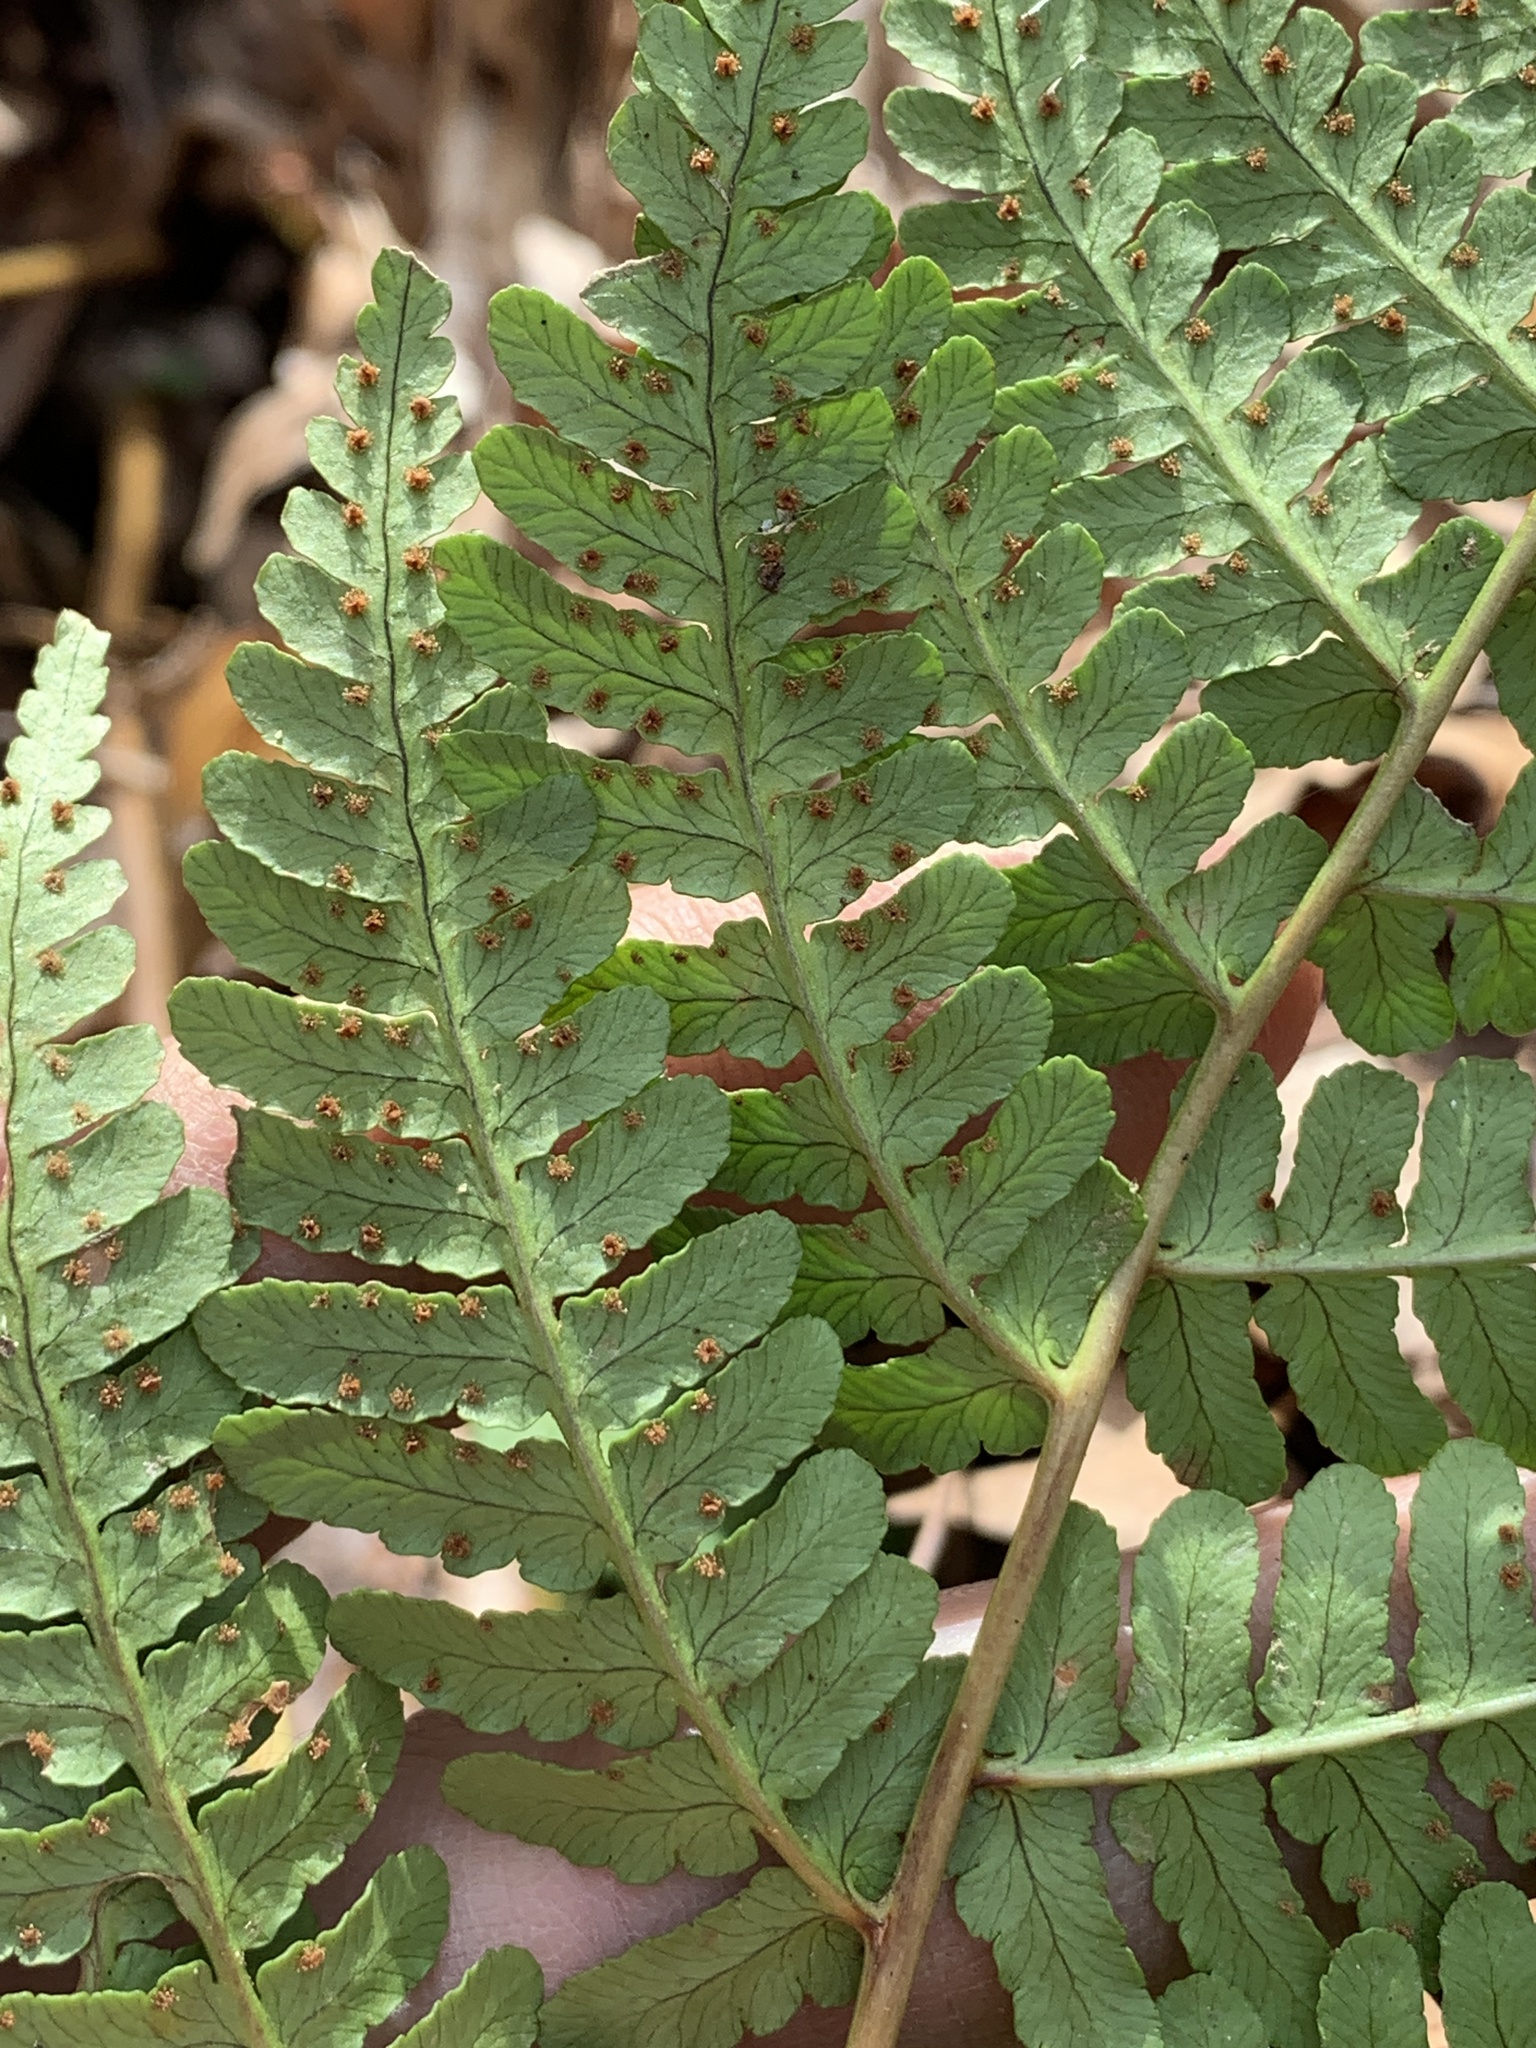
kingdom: Plantae
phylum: Tracheophyta
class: Polypodiopsida
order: Polypodiales
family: Dryopteridaceae
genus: Dryopteris
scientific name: Dryopteris marginalis
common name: Marginal wood fern
